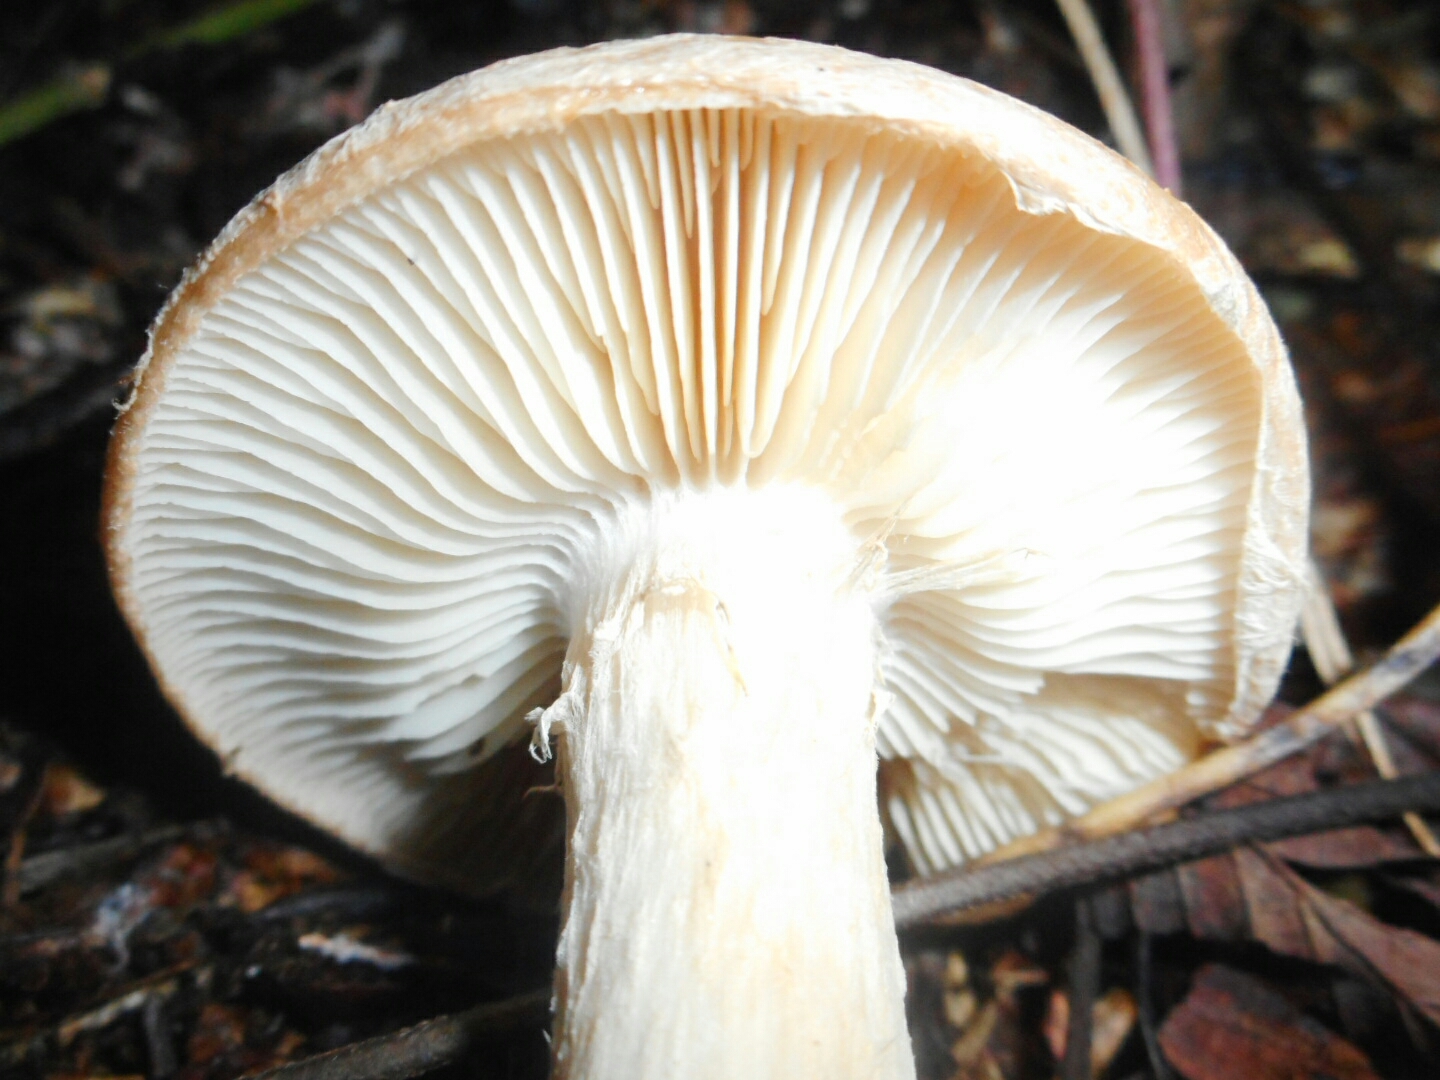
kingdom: Fungi
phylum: Basidiomycota
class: Agaricomycetes
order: Agaricales
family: Tricholomataceae
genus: Leucocortinarius
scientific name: Leucocortinarius bulbiger
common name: White webcap
